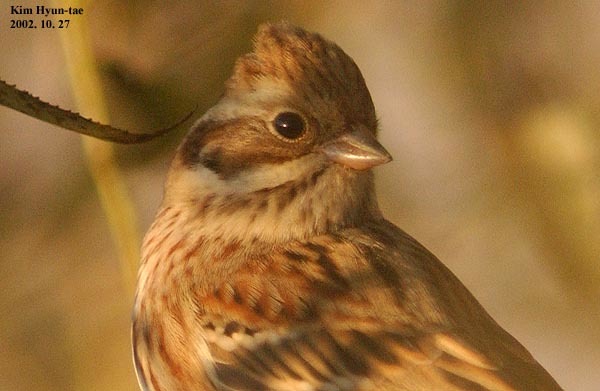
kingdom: Animalia
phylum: Chordata
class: Aves
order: Passeriformes
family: Emberizidae
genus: Emberiza
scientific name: Emberiza rustica
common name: Rustic bunting
